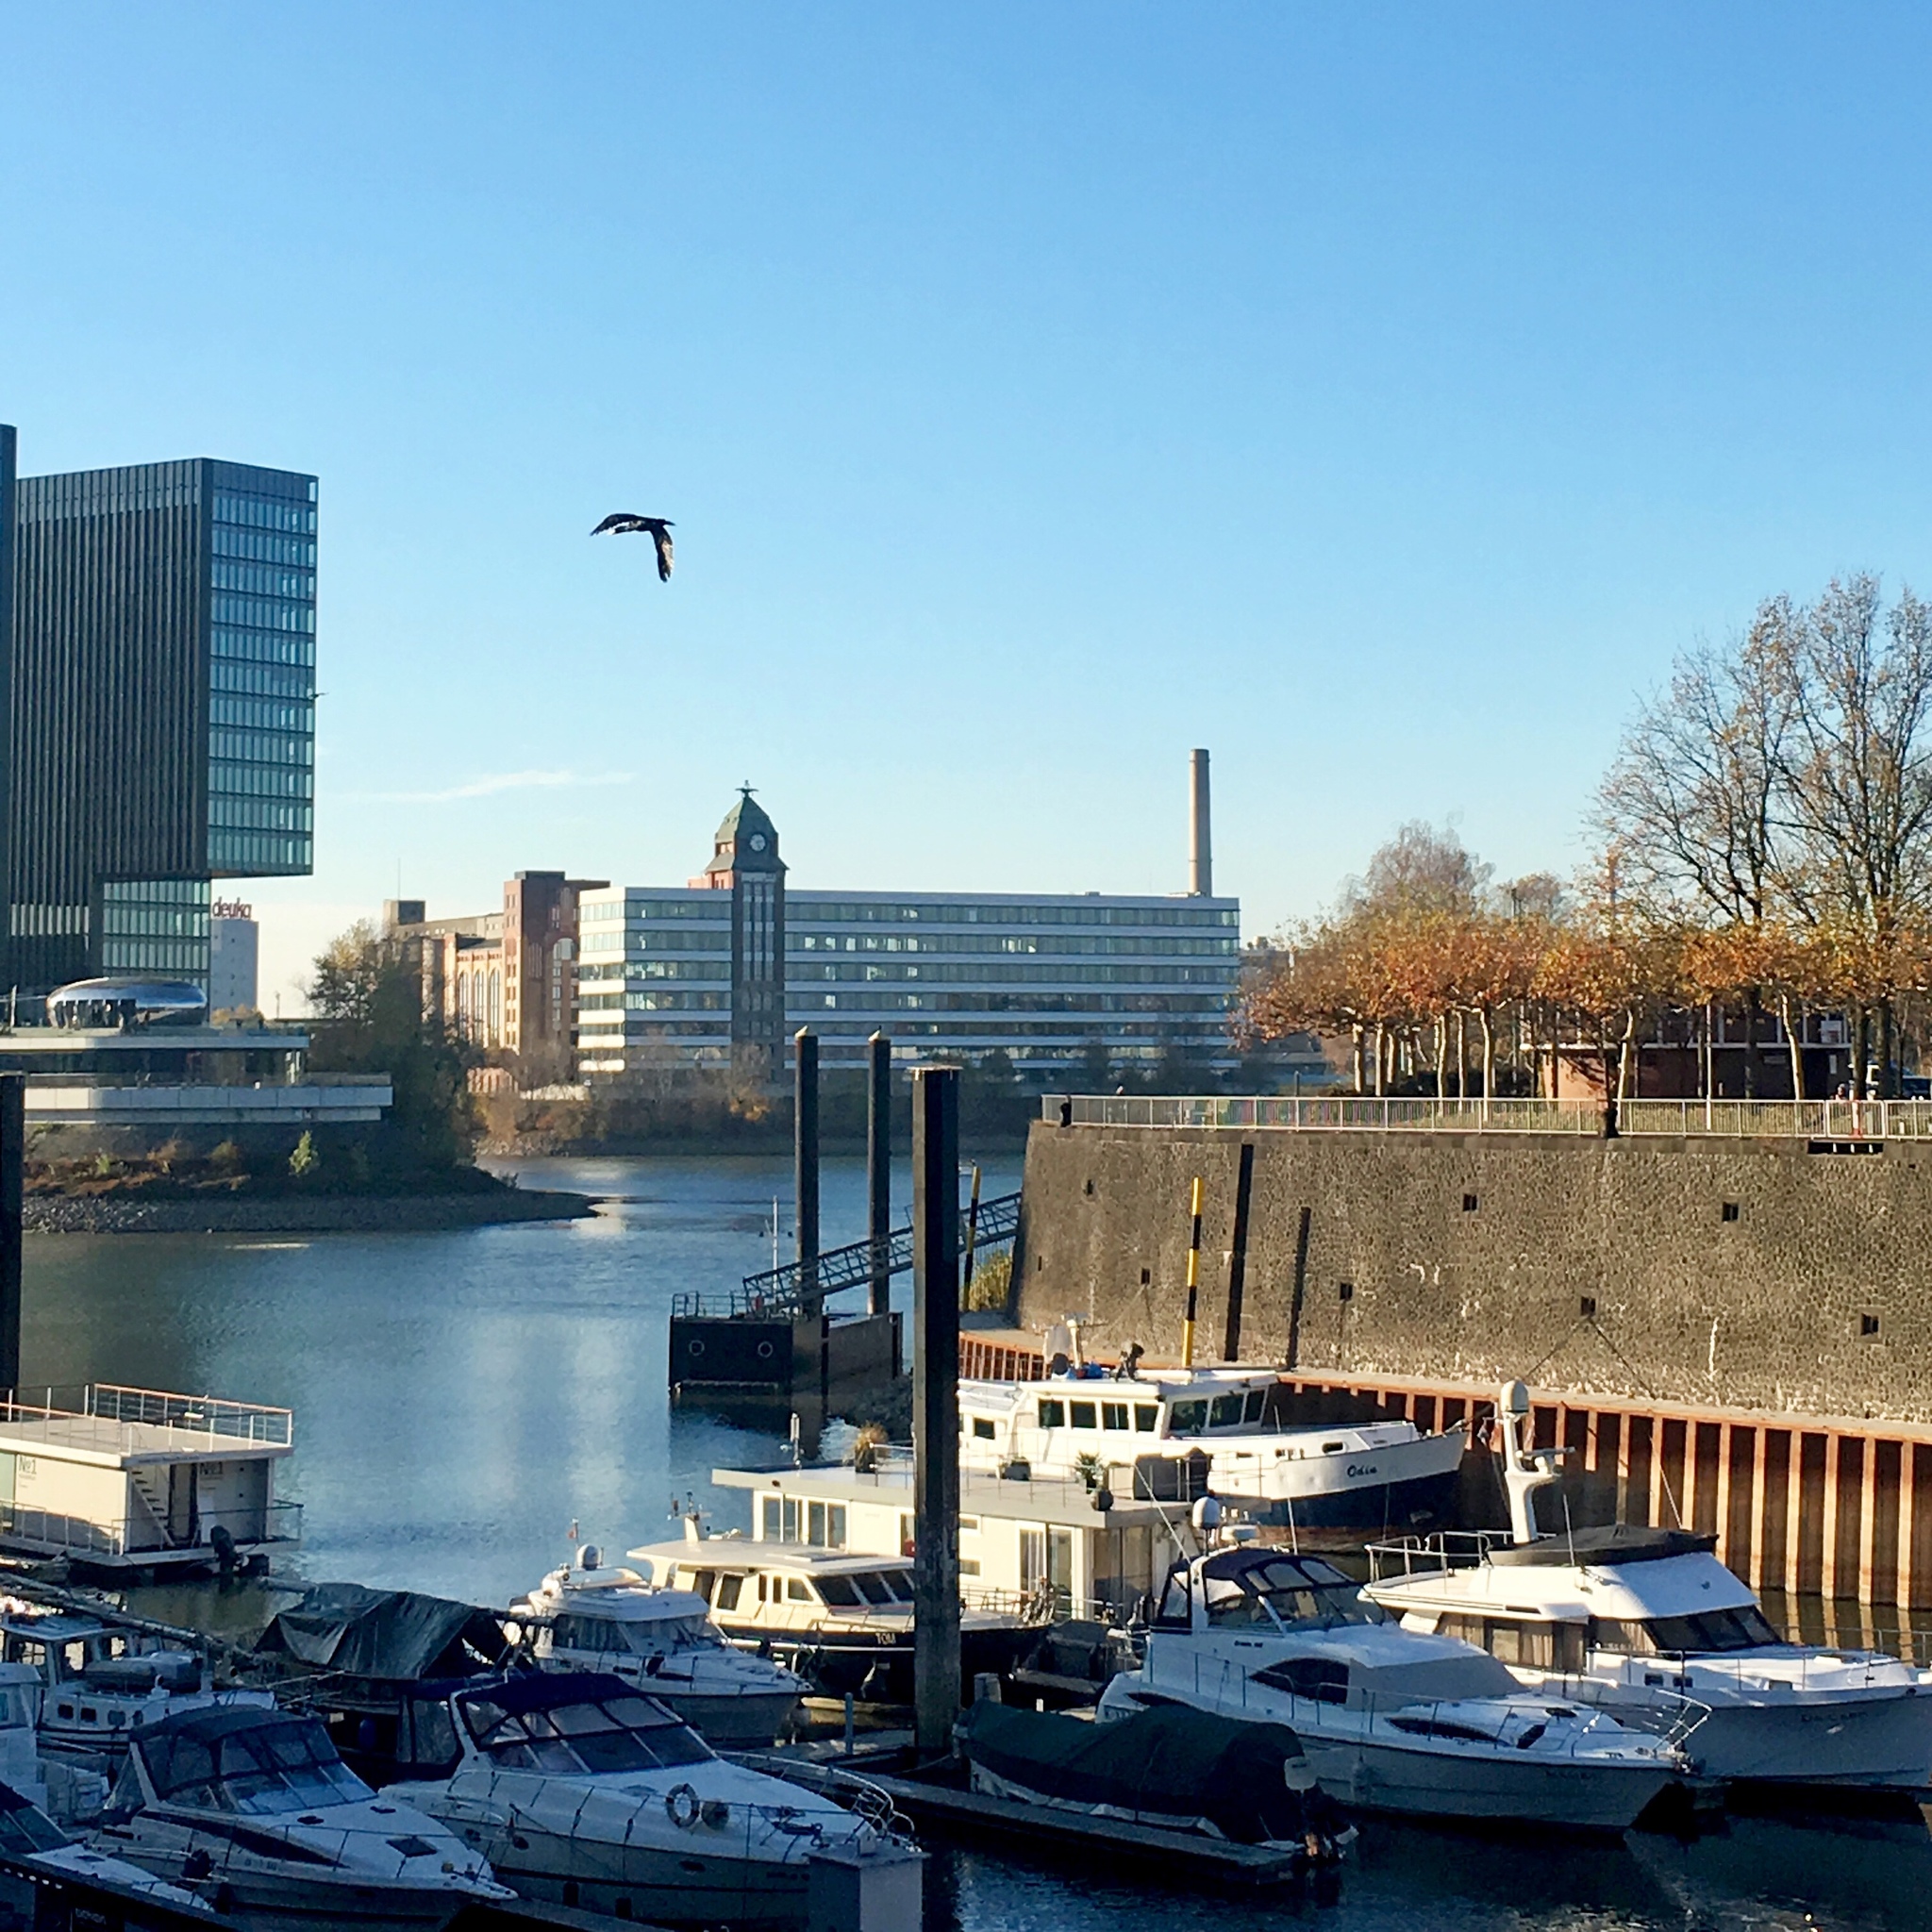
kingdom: Animalia
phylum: Chordata
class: Aves
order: Suliformes
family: Phalacrocoracidae
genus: Phalacrocorax
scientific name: Phalacrocorax carbo
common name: Great cormorant
